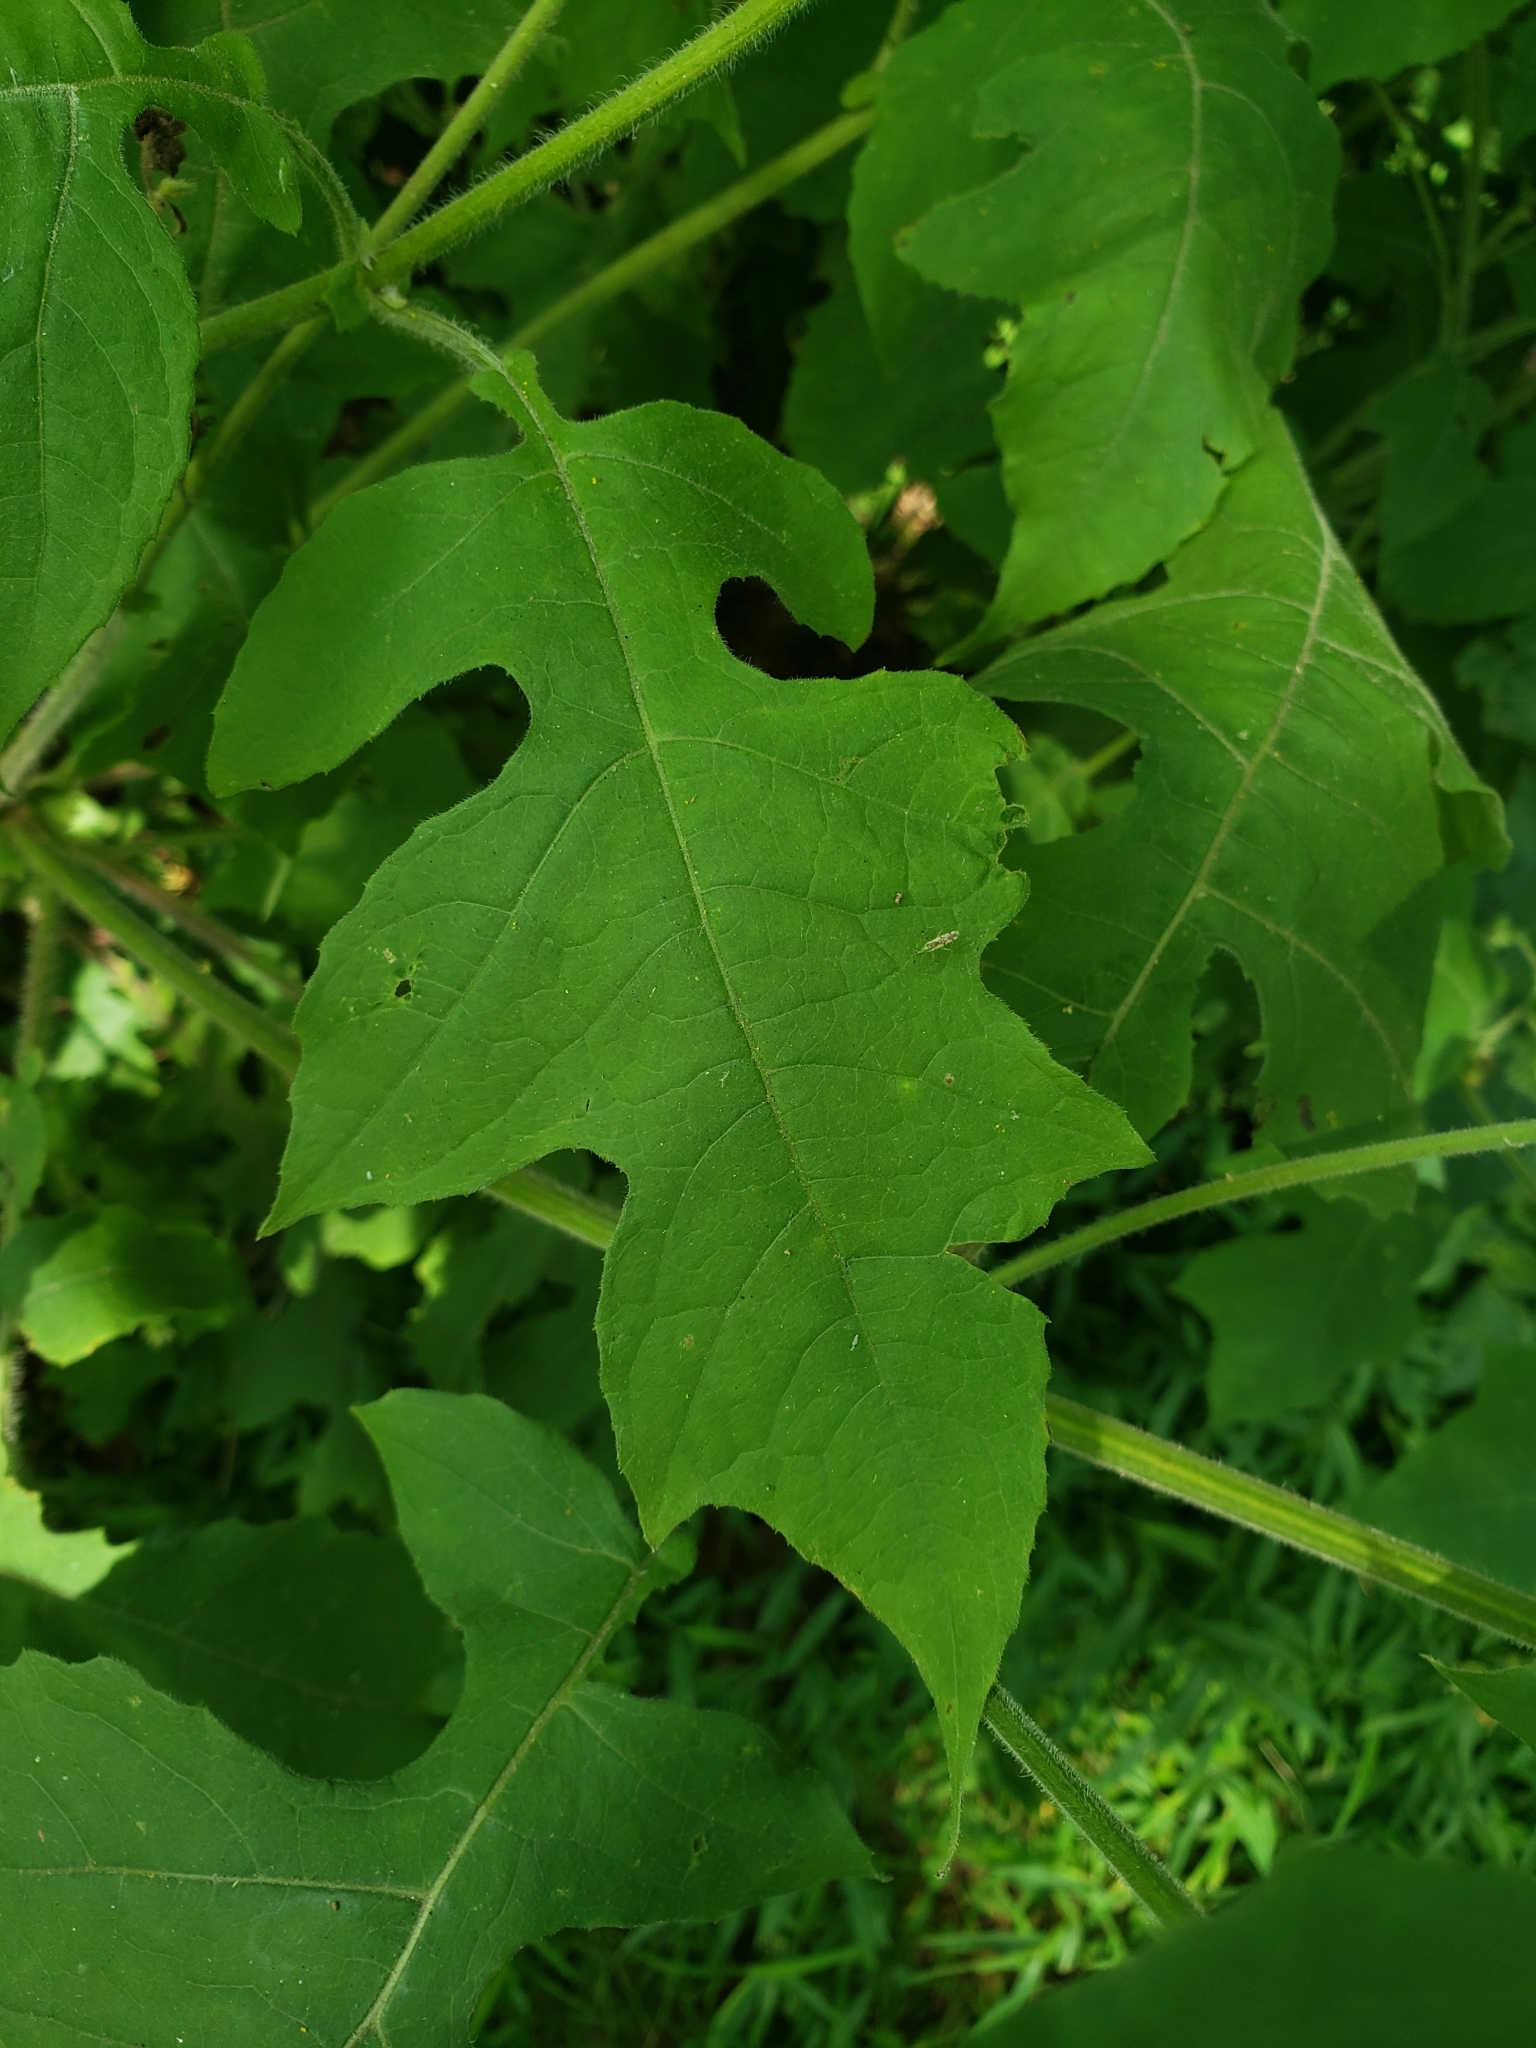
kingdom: Plantae
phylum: Tracheophyta
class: Magnoliopsida
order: Asterales
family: Asteraceae
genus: Polymnia
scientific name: Polymnia canadensis
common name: Pale-flowered leafcup
